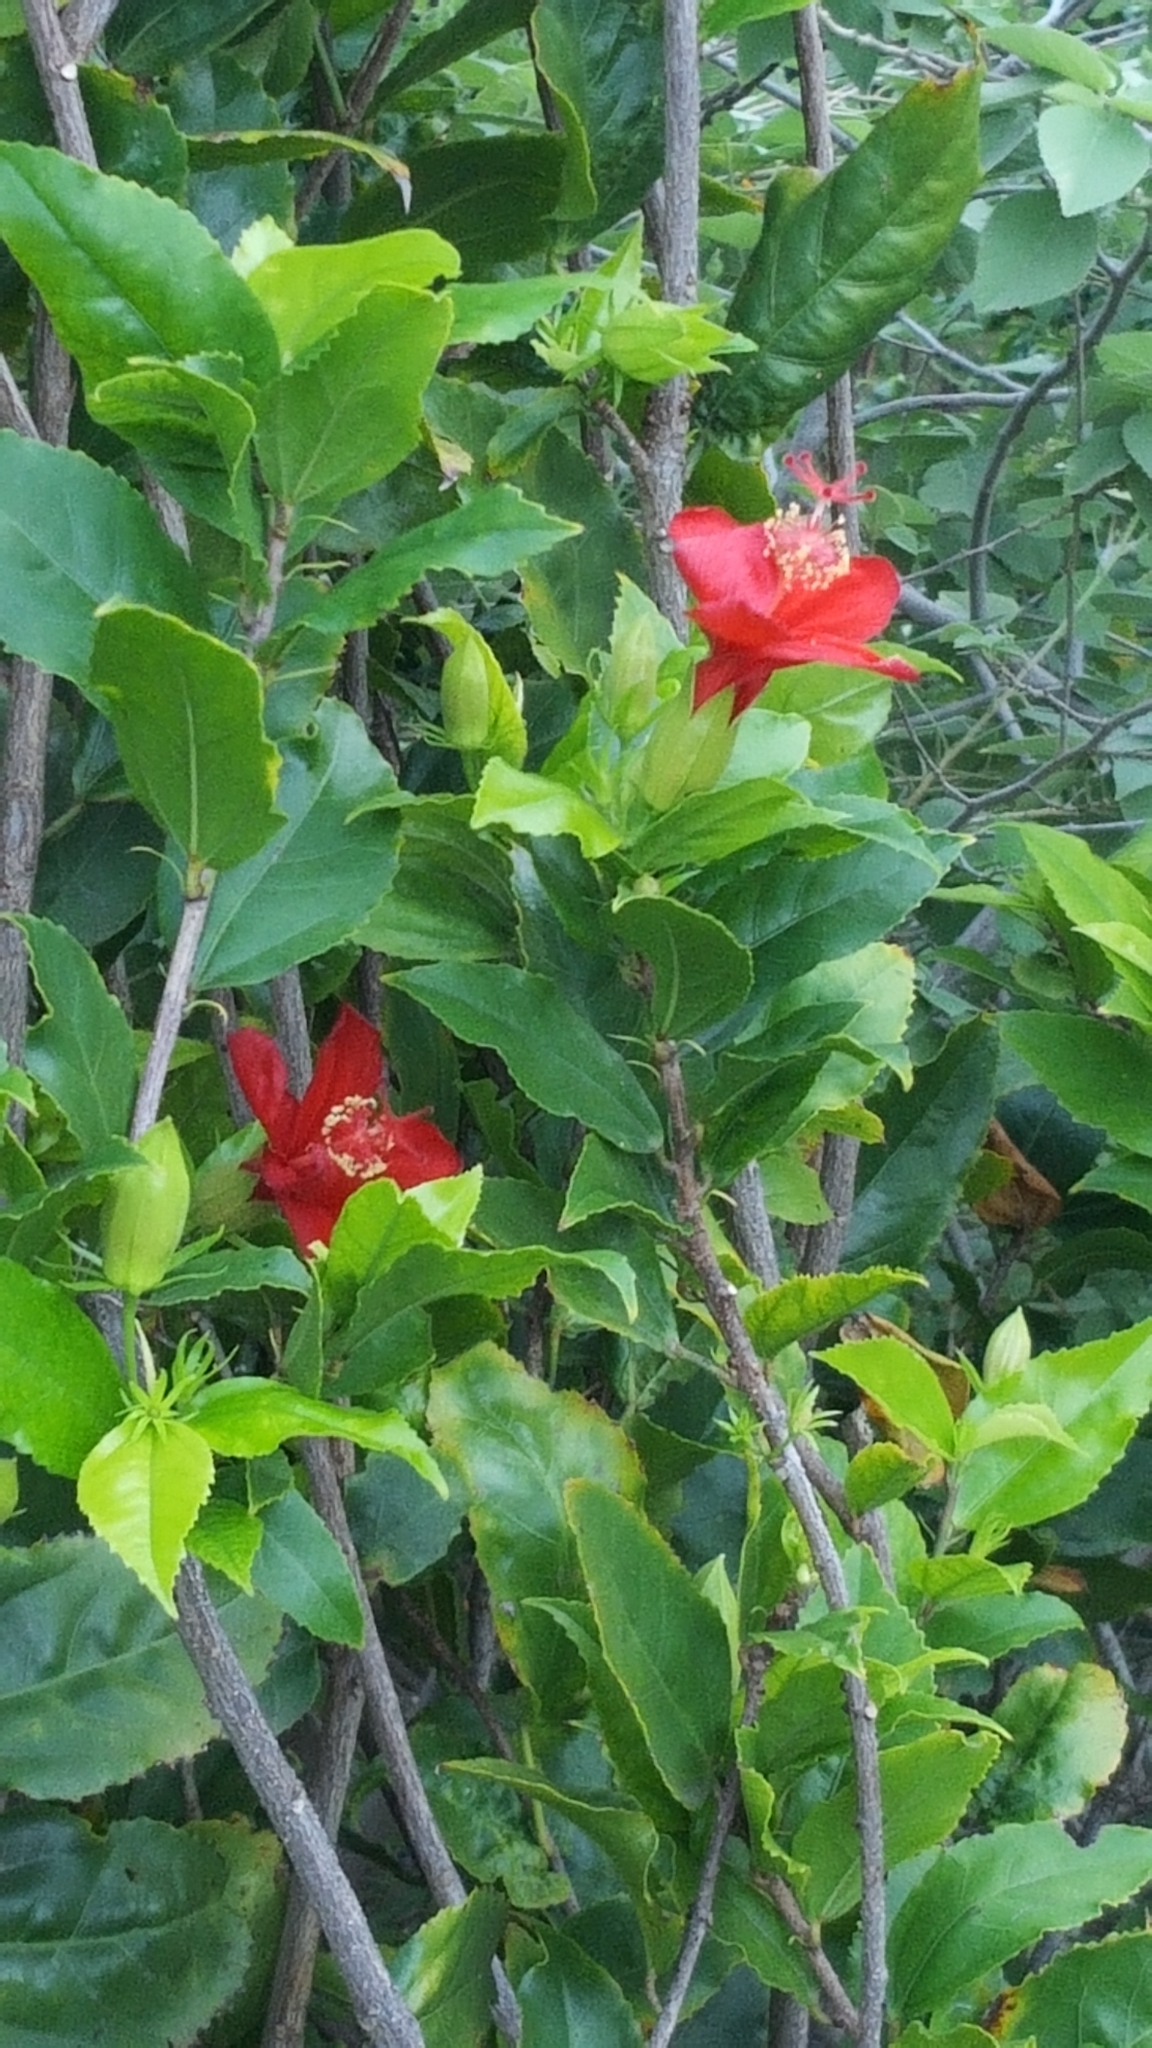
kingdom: Plantae
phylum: Tracheophyta
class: Magnoliopsida
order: Malvales
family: Malvaceae
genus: Hibiscus
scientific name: Hibiscus kokio
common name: Saint john's rosemallow
